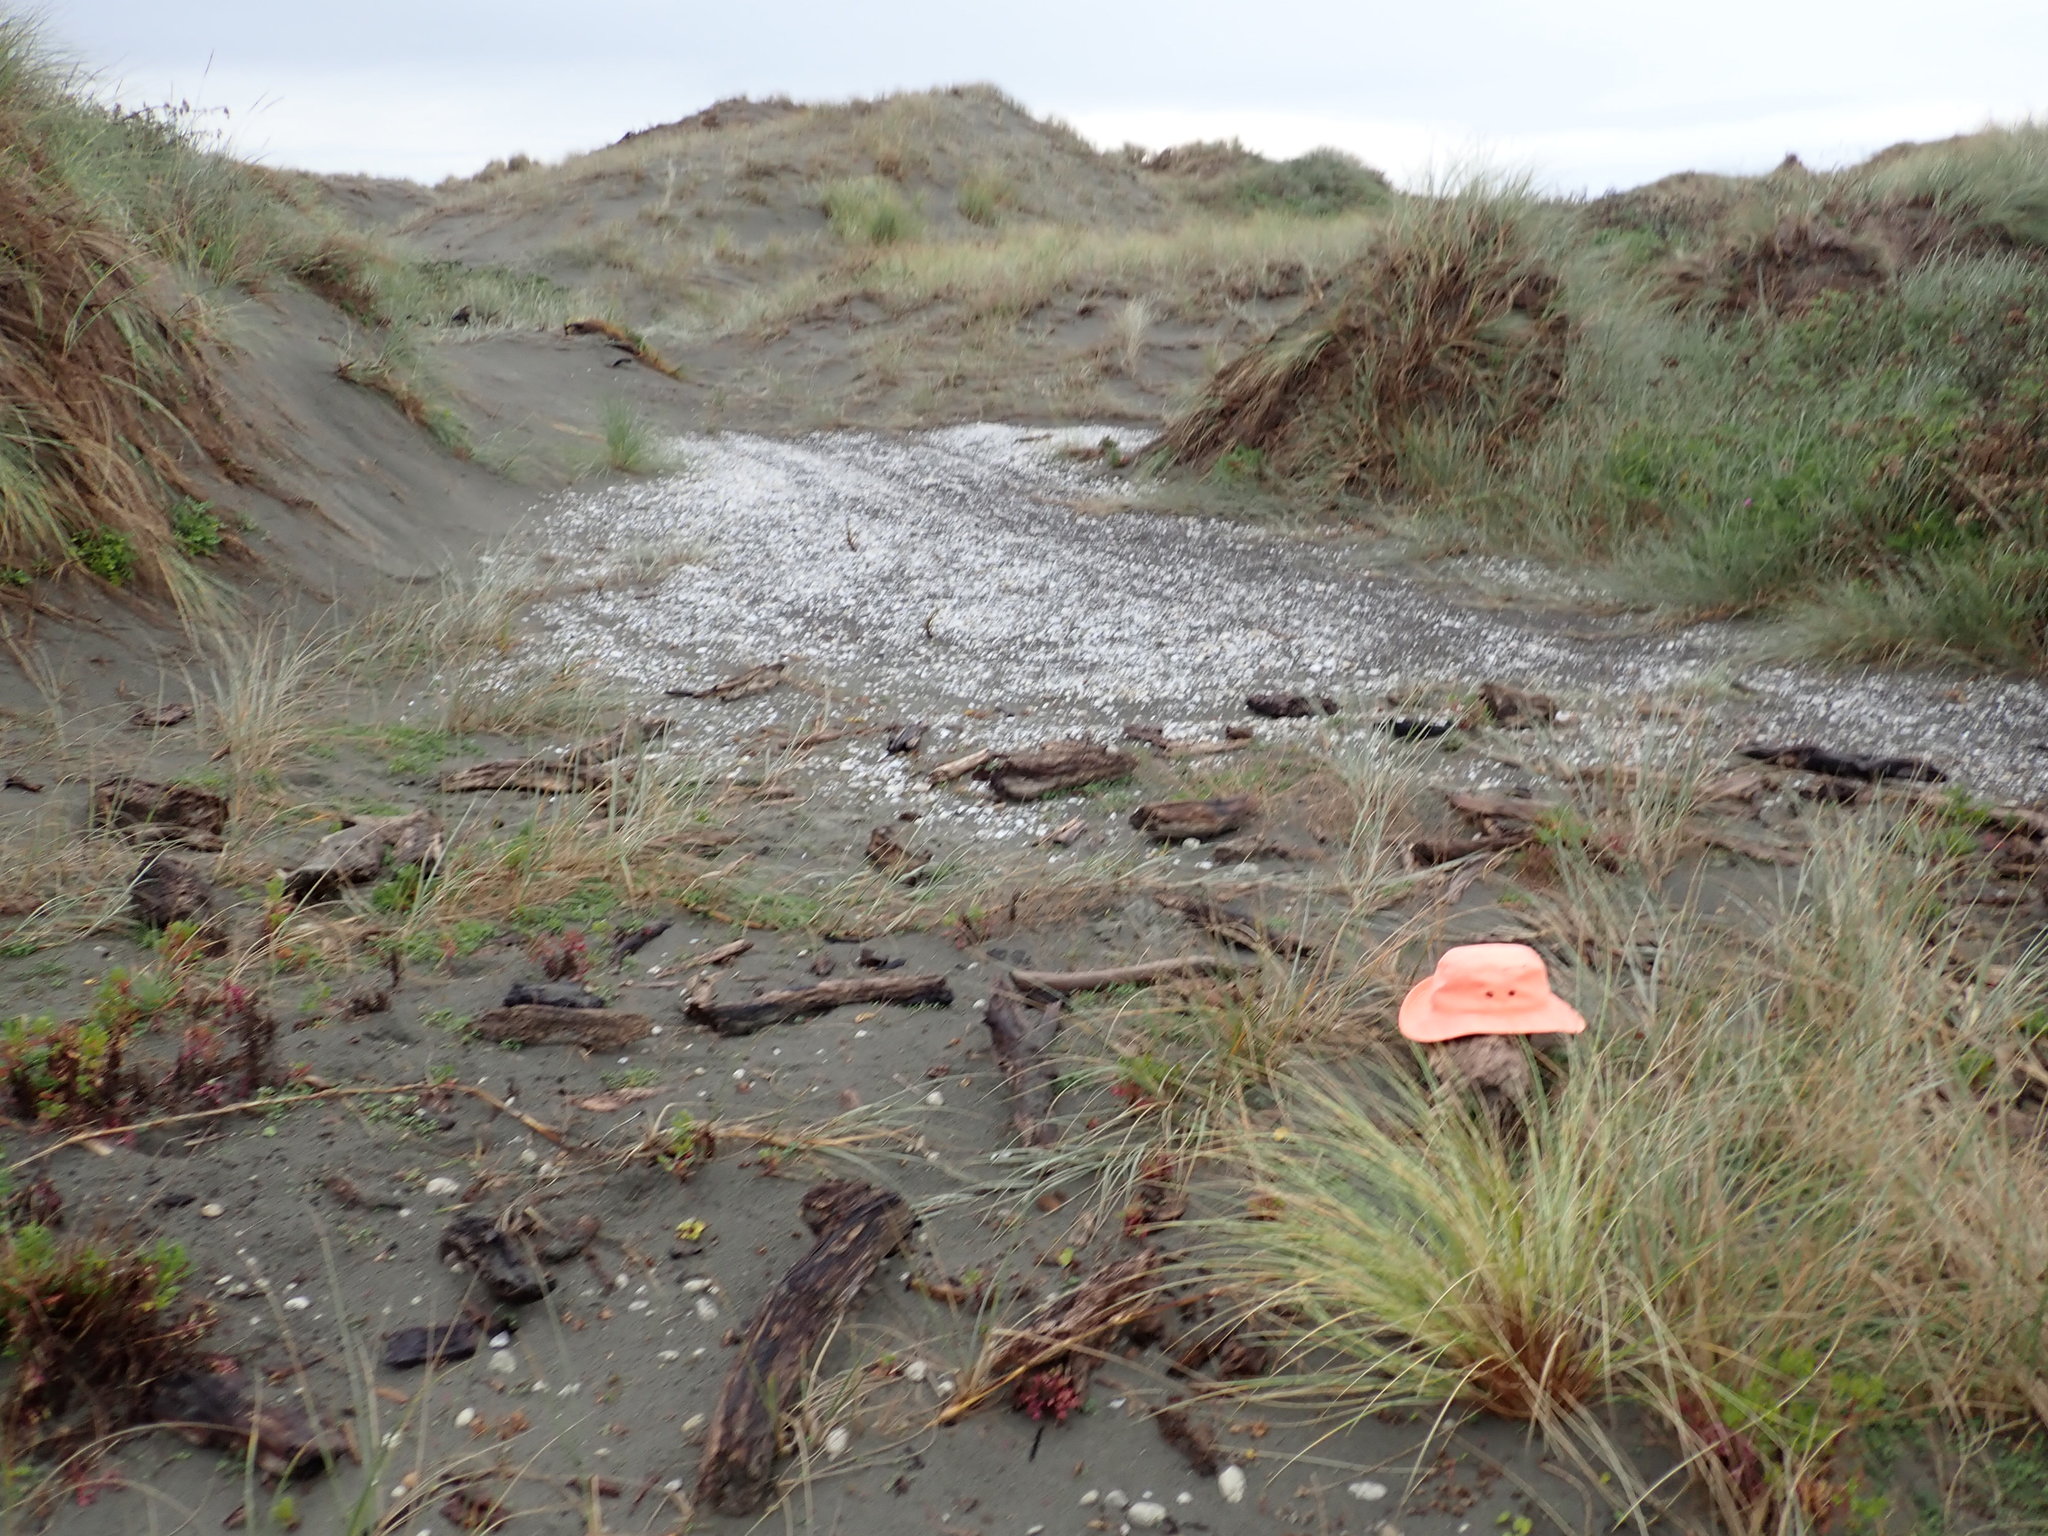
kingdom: Animalia
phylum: Arthropoda
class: Arachnida
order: Araneae
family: Theridiidae
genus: Latrodectus
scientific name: Latrodectus katipo
